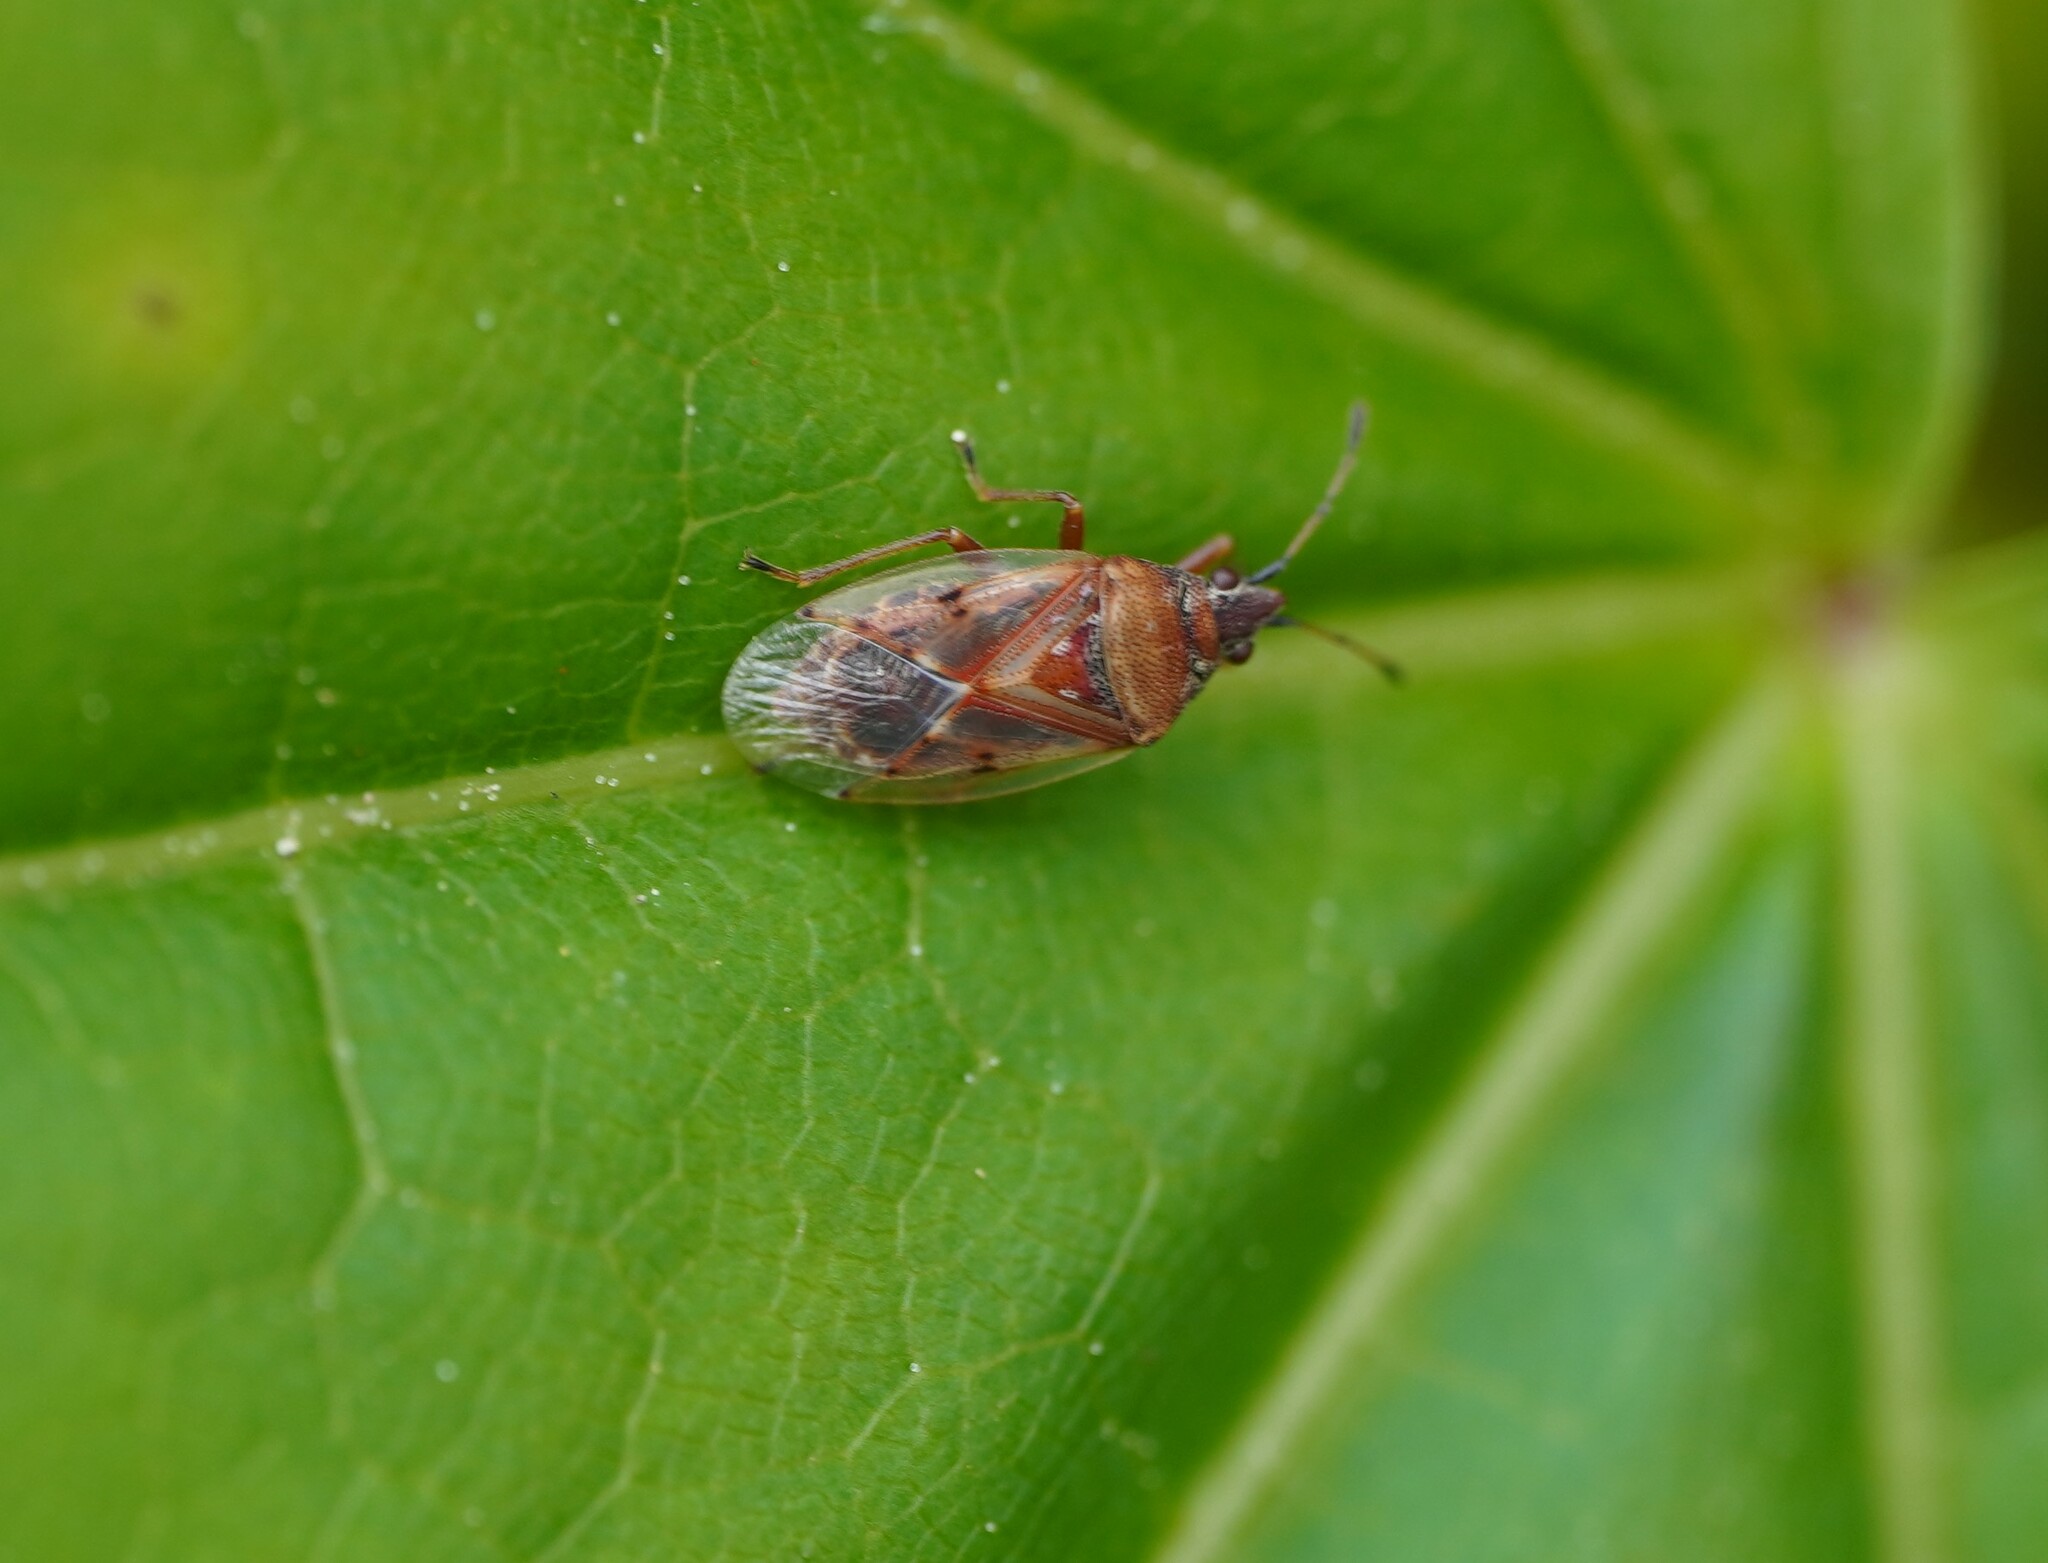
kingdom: Animalia
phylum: Arthropoda
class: Insecta
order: Hemiptera
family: Lygaeidae
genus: Kleidocerys
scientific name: Kleidocerys resedae
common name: Birch catkin bug
